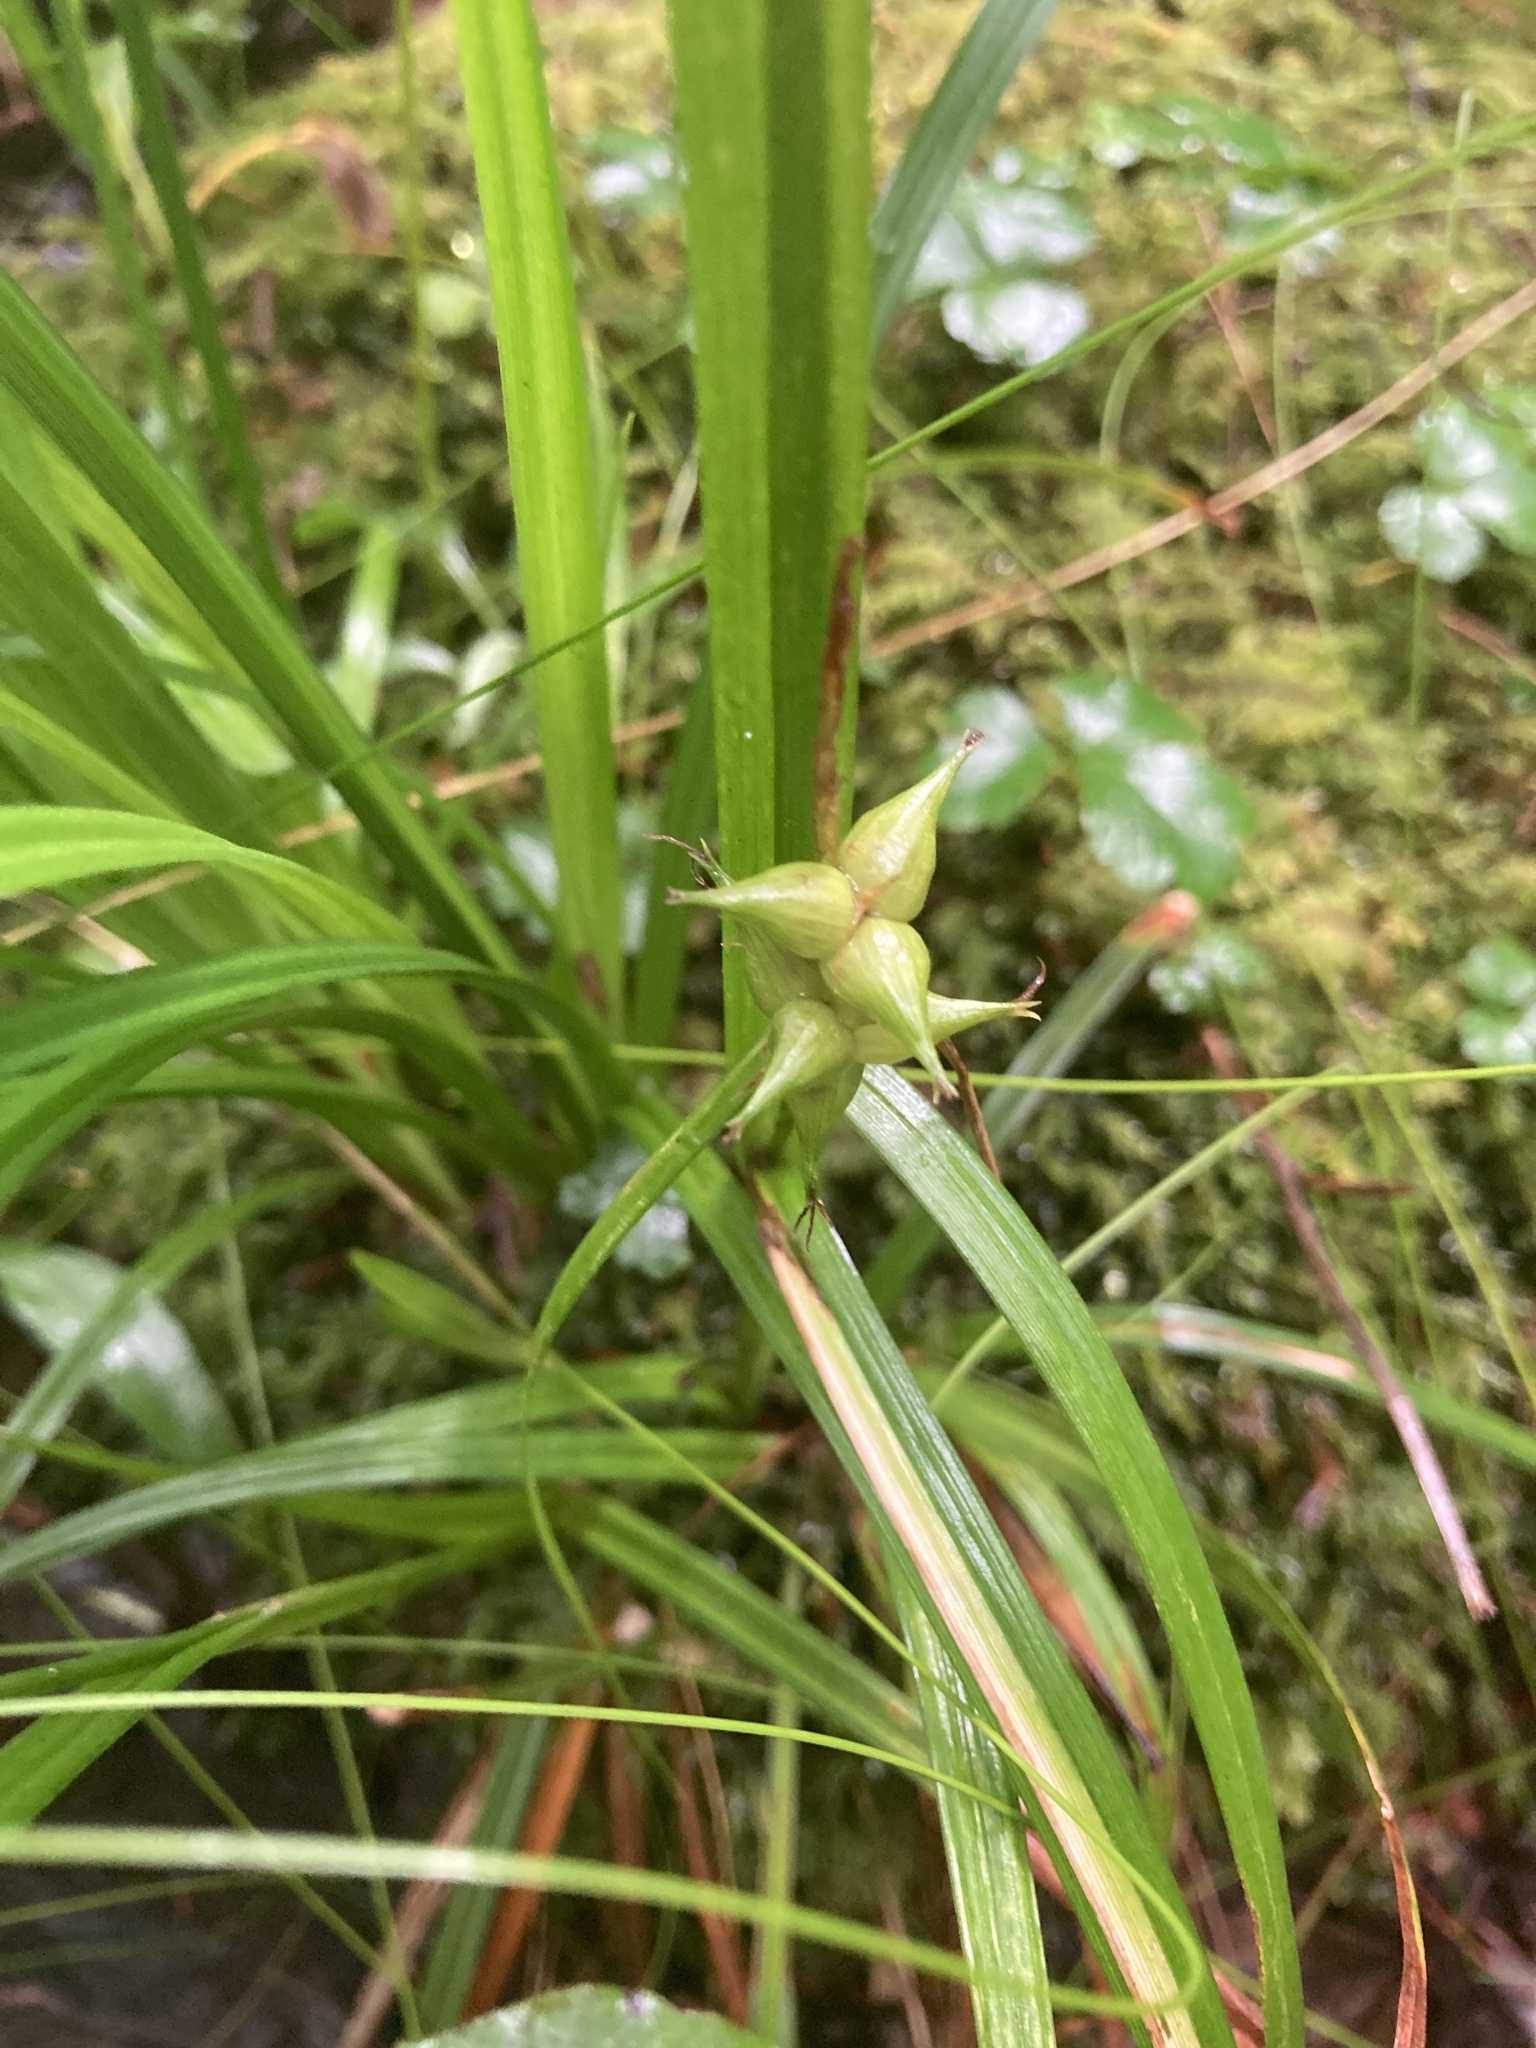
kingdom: Plantae
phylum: Tracheophyta
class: Liliopsida
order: Poales
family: Cyperaceae
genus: Carex
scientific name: Carex intumescens
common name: Greater bladder sedge
